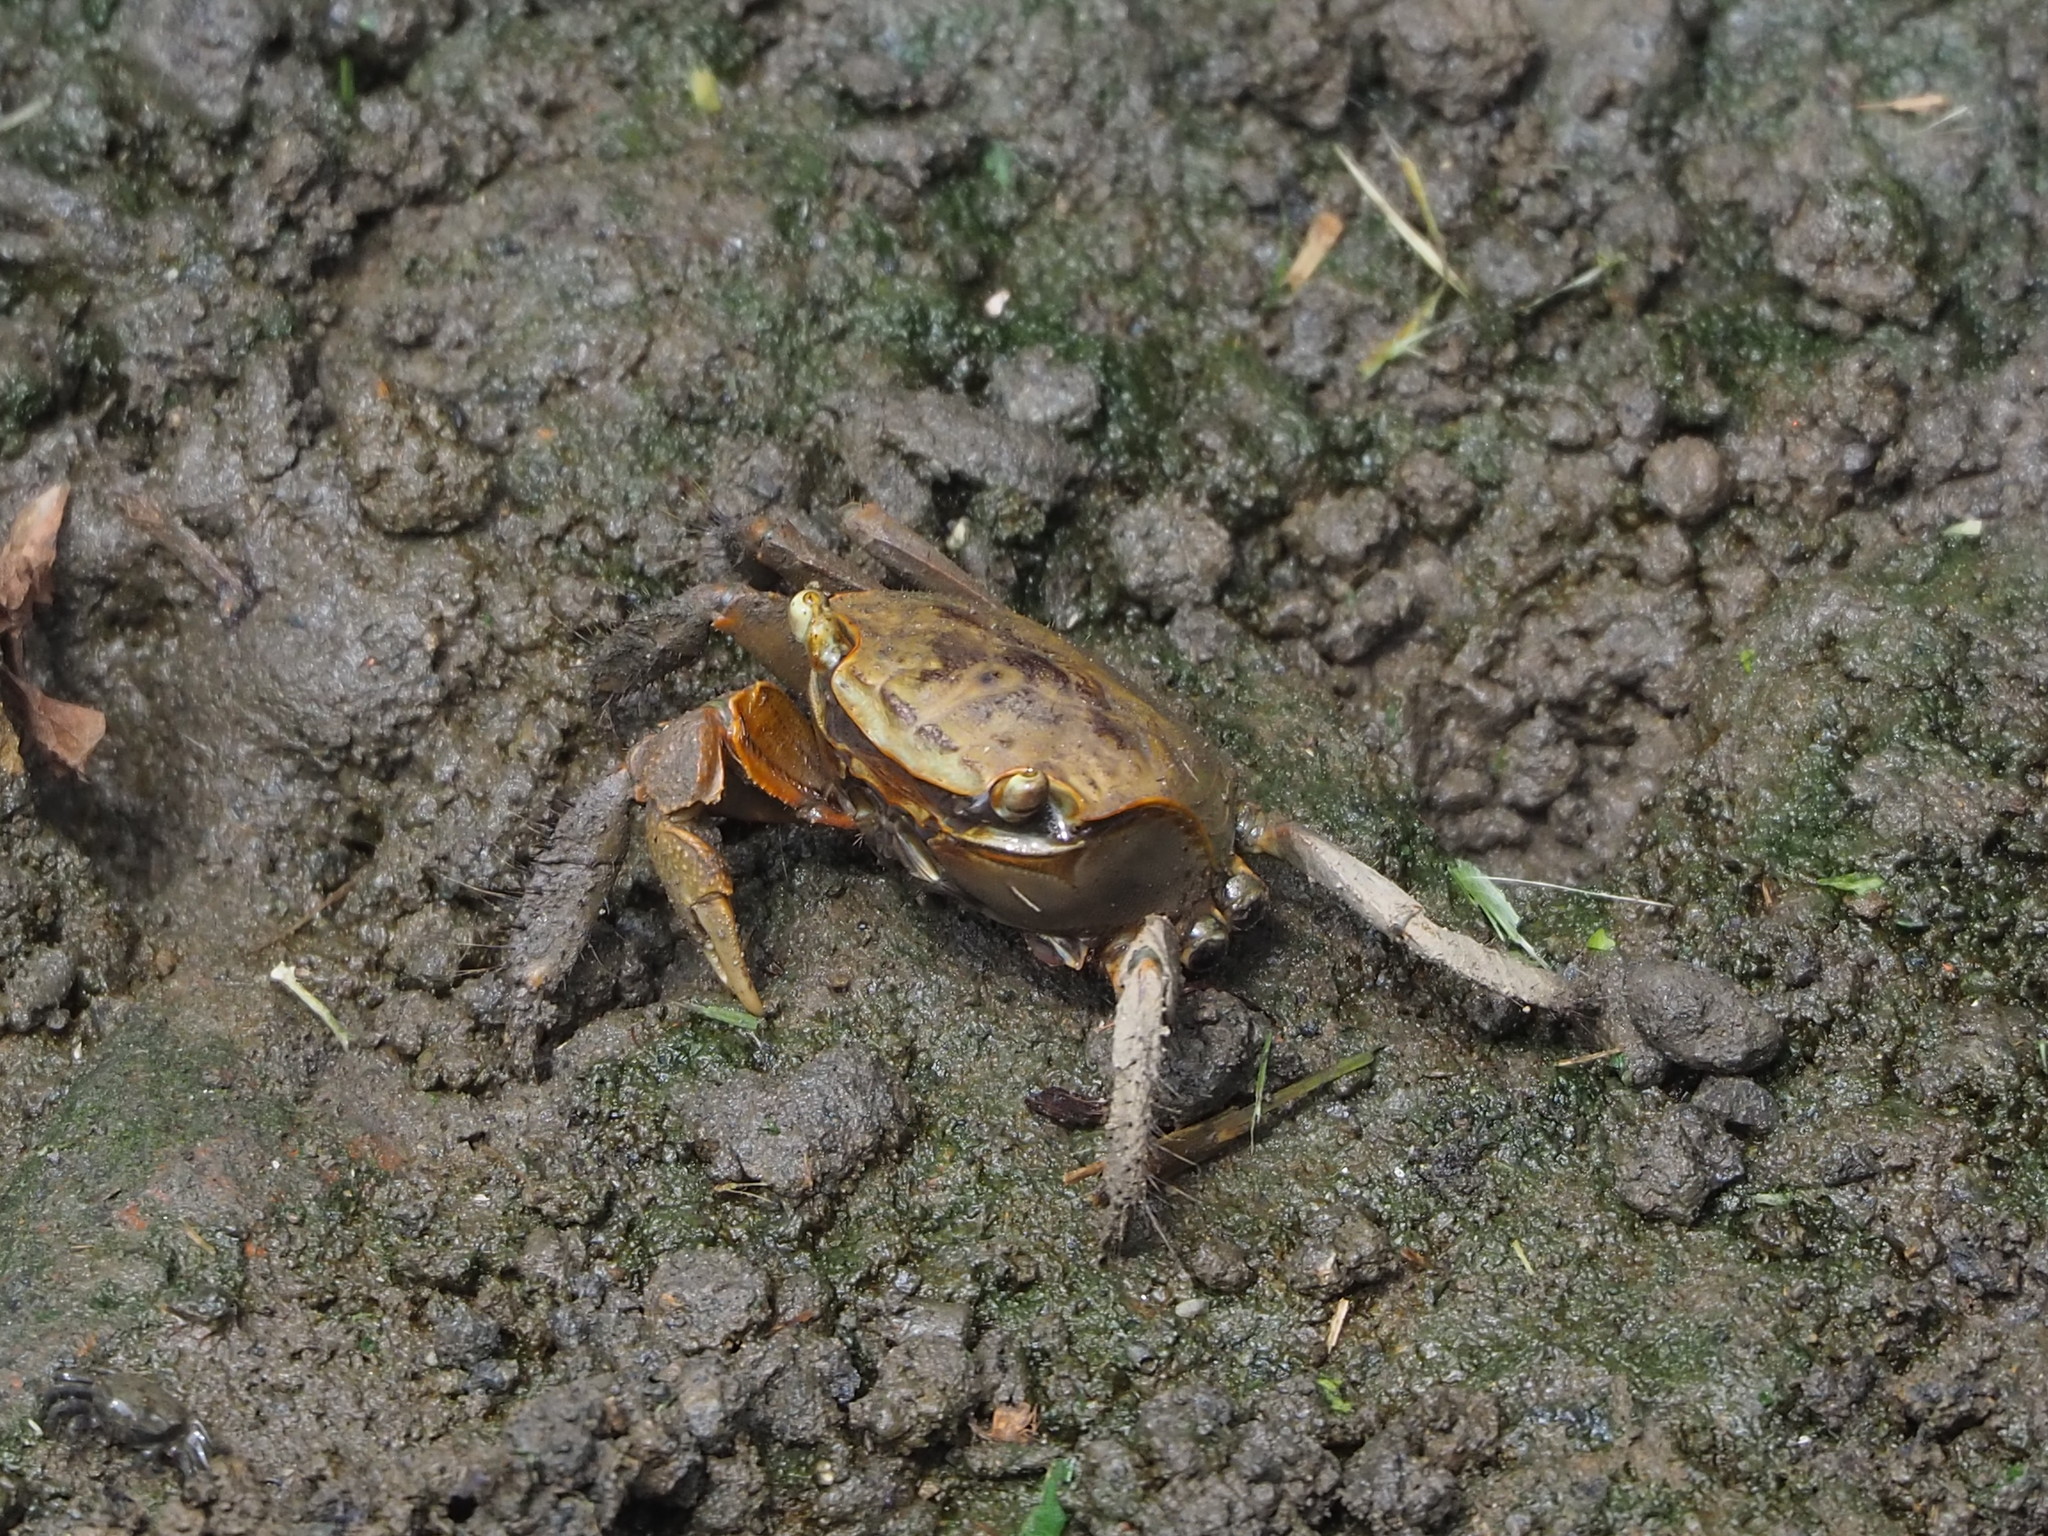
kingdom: Animalia
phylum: Arthropoda
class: Malacostraca
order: Decapoda
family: Sesarmidae
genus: Orisarma
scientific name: Orisarma dehaani
